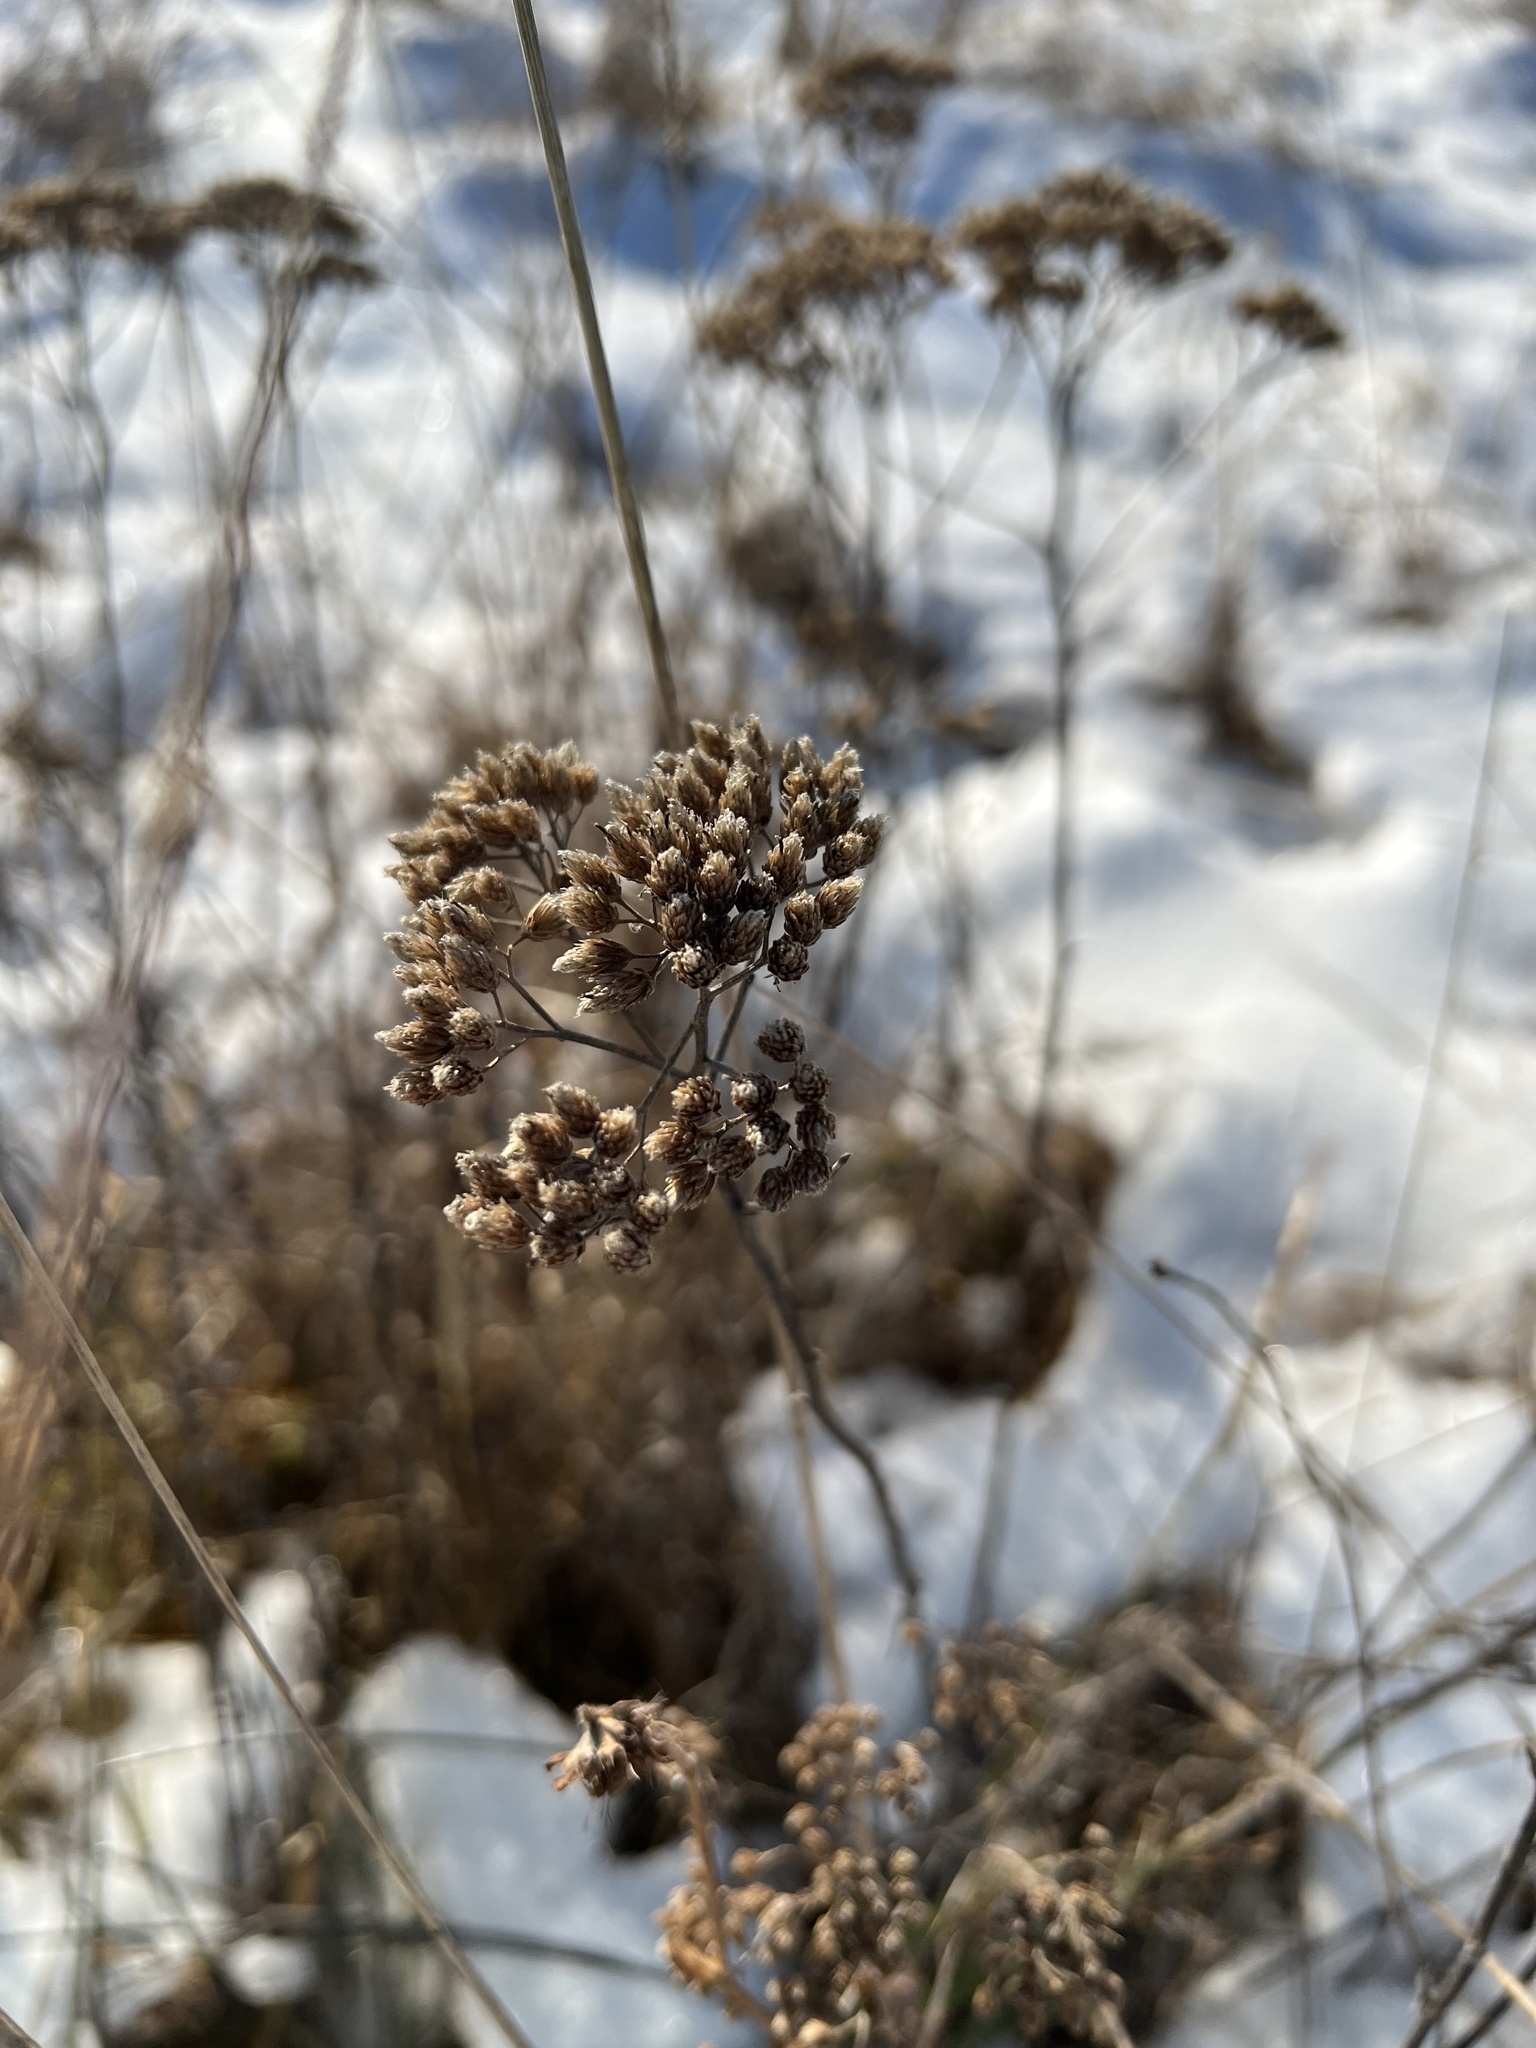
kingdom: Plantae
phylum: Tracheophyta
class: Magnoliopsida
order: Asterales
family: Asteraceae
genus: Achillea
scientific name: Achillea millefolium
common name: Yarrow
